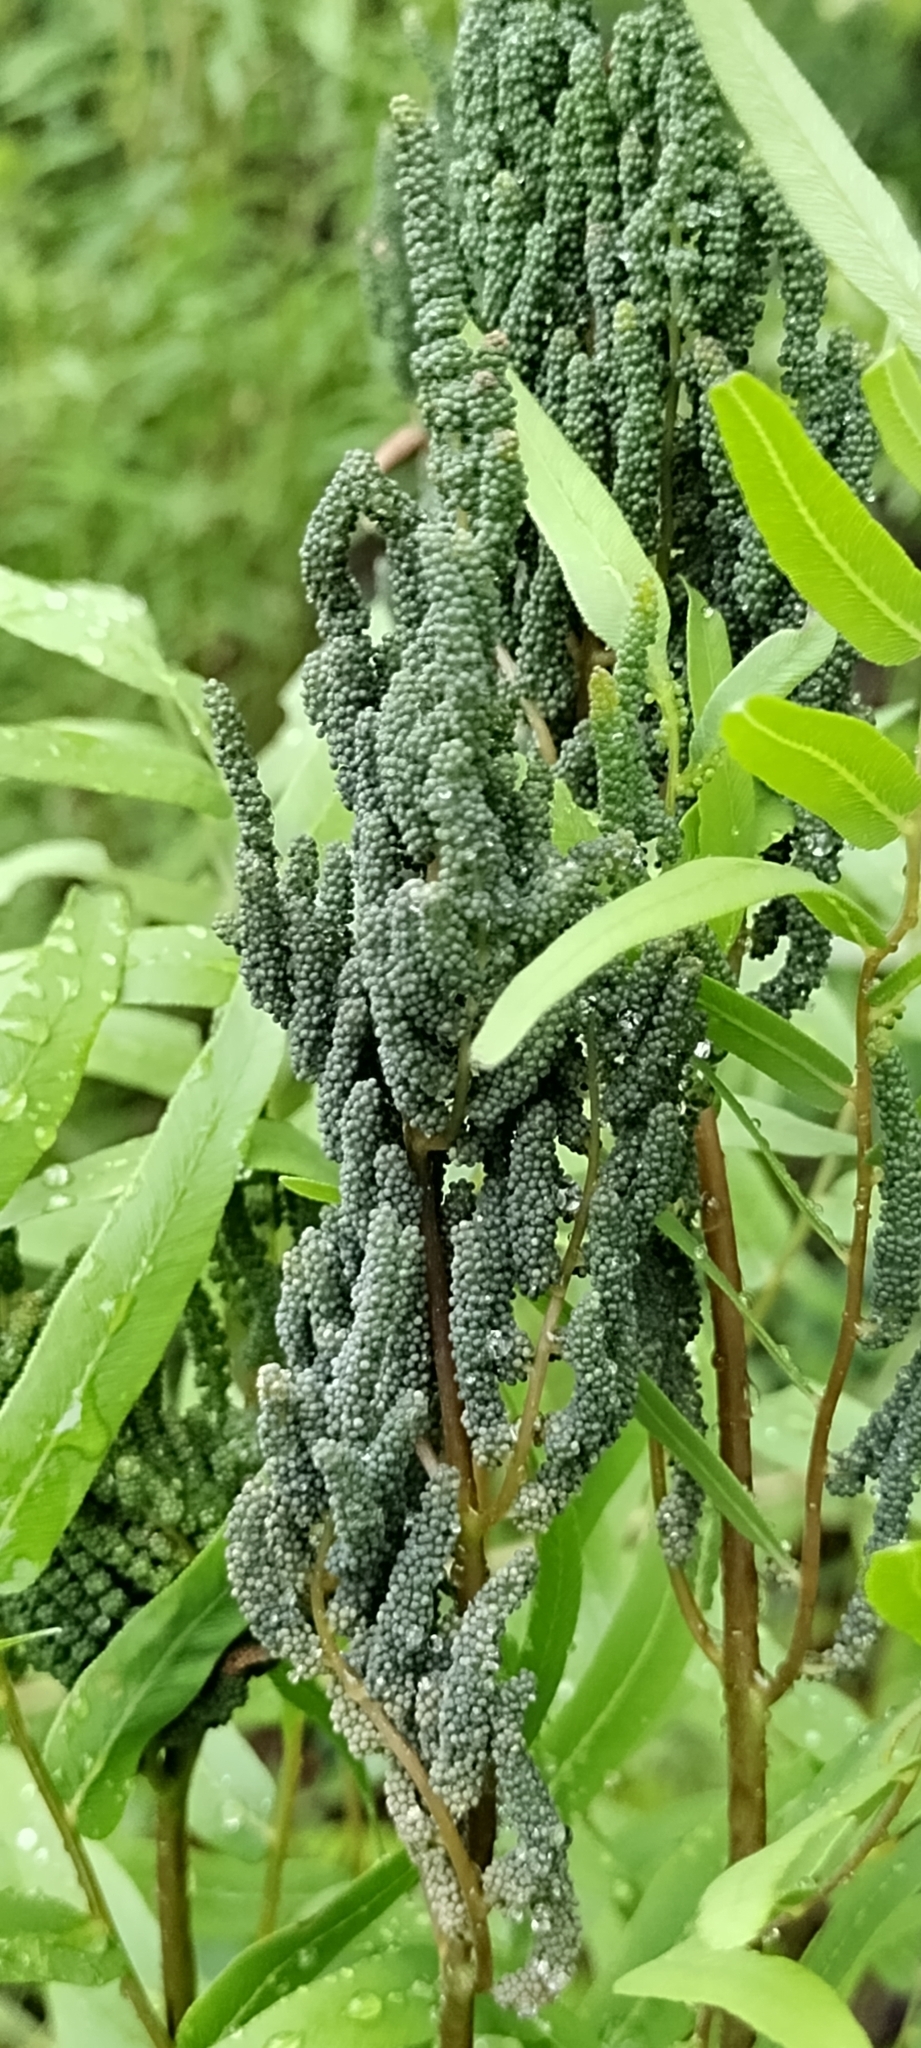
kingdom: Plantae
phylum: Tracheophyta
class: Polypodiopsida
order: Osmundales
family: Osmundaceae
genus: Osmunda
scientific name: Osmunda spectabilis
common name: American royal fern
